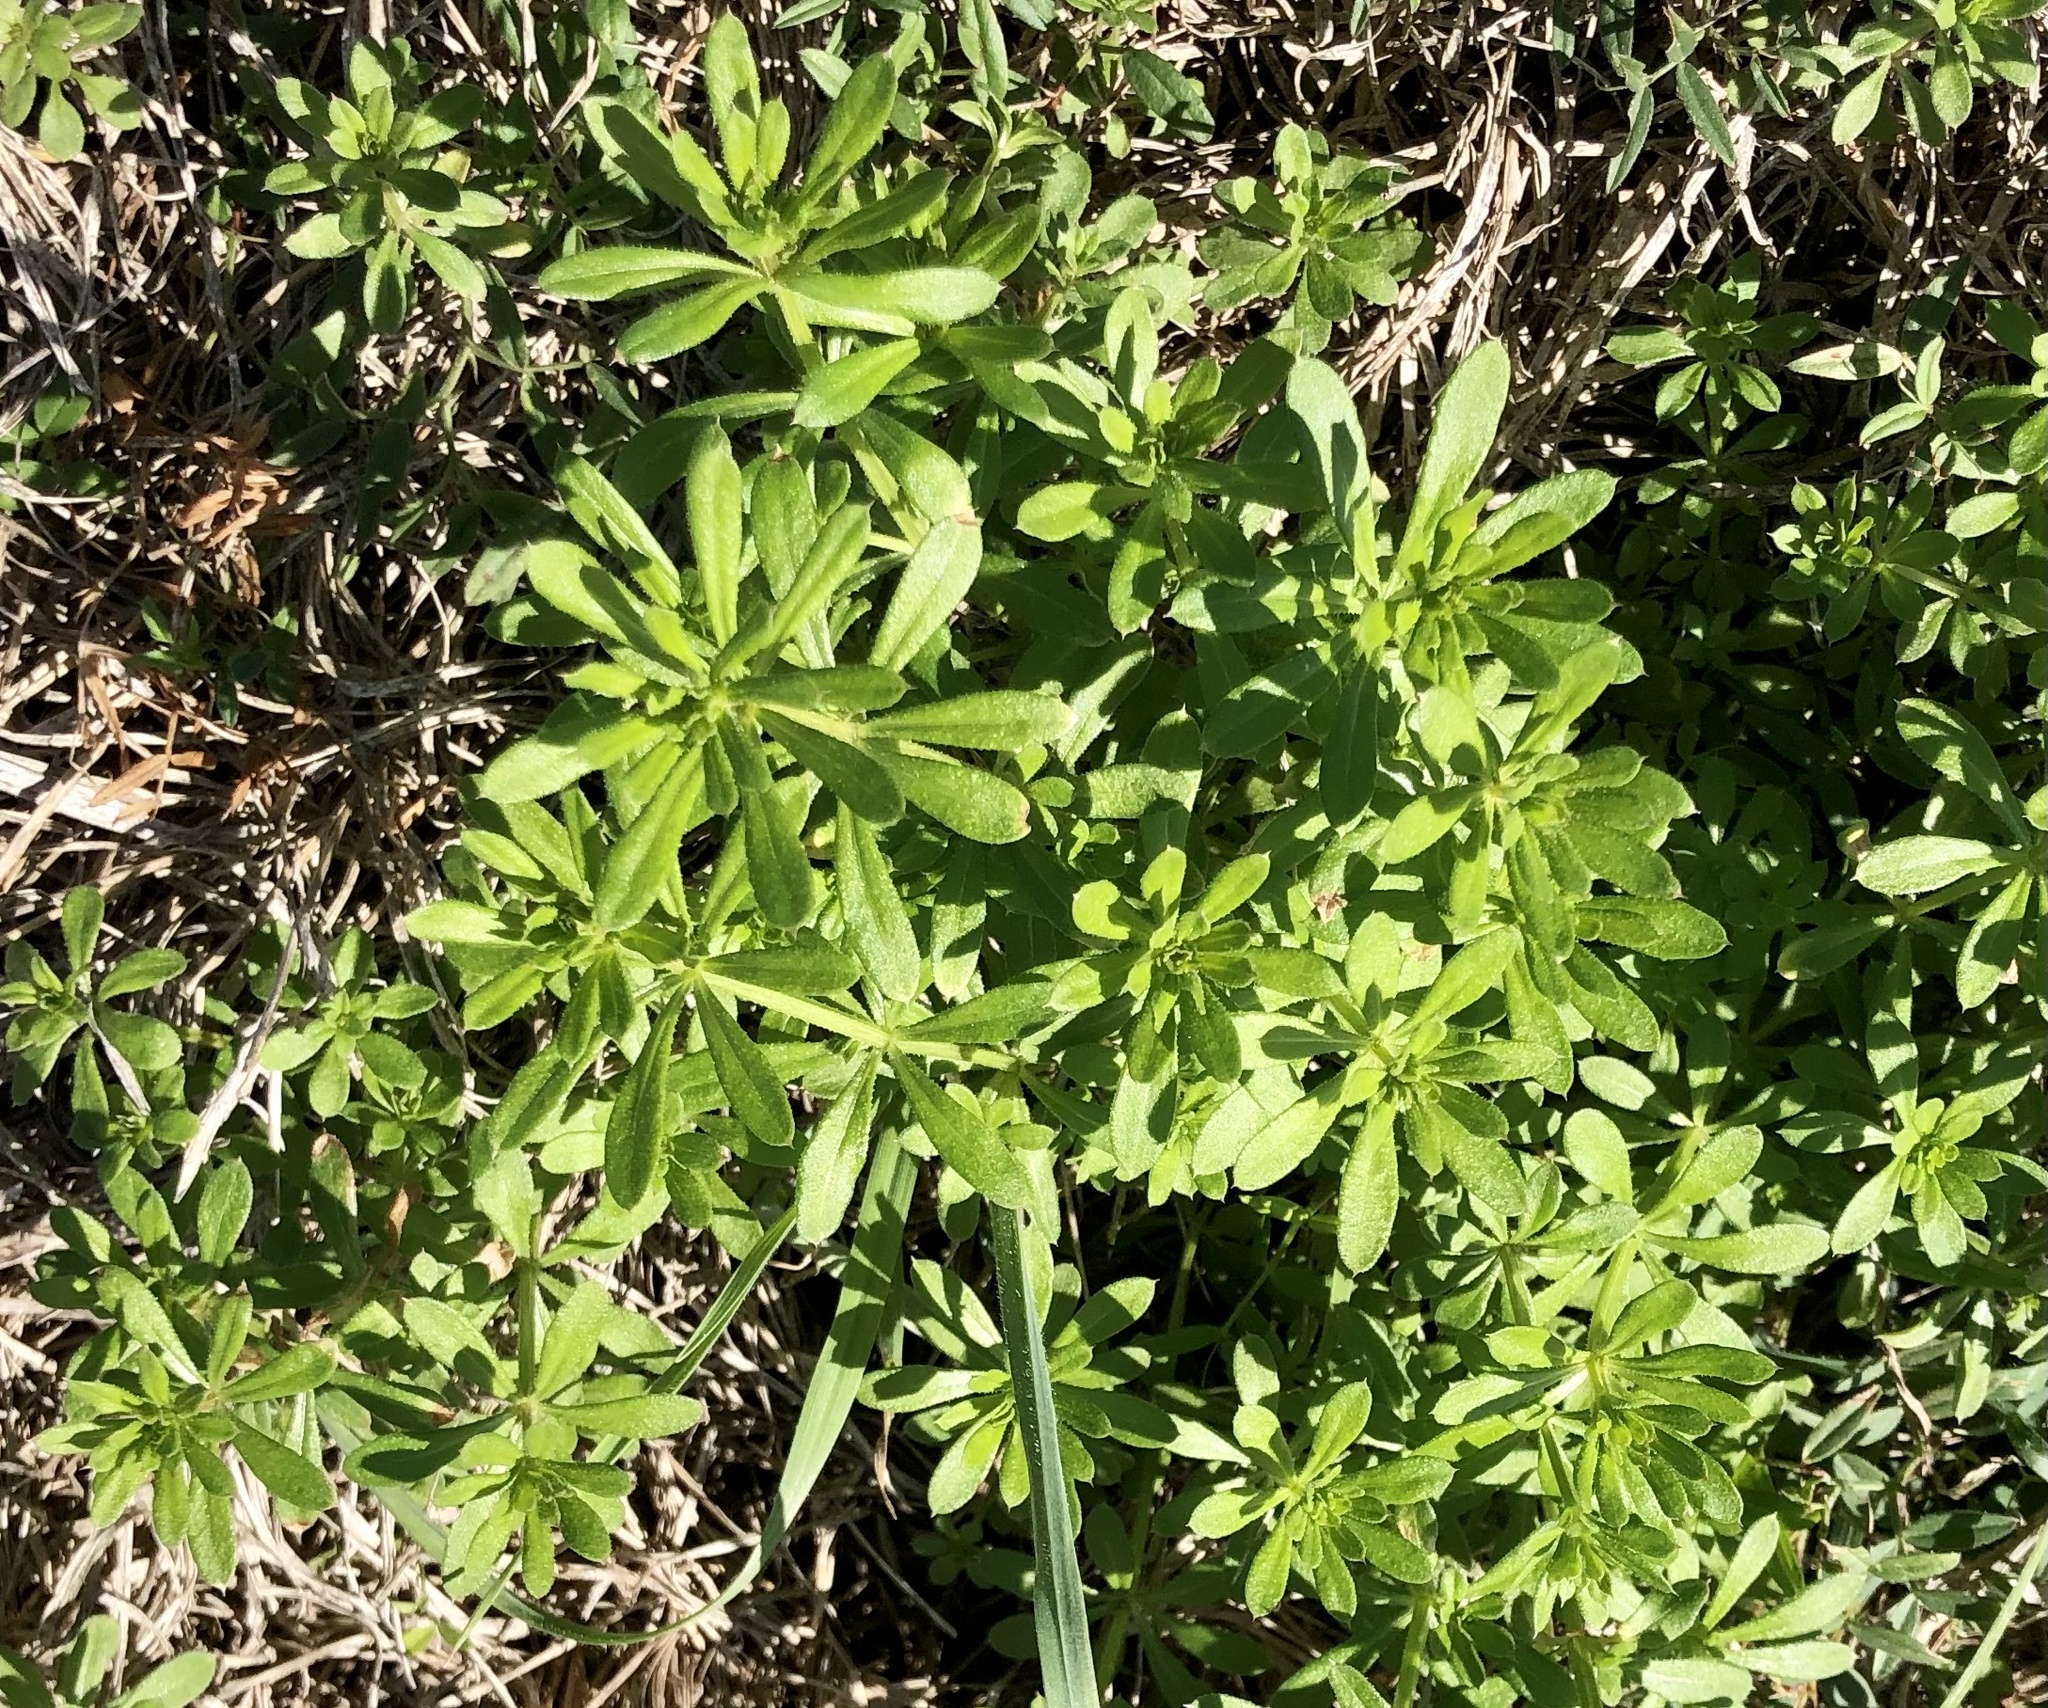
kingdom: Plantae
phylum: Tracheophyta
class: Magnoliopsida
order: Gentianales
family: Rubiaceae
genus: Galium
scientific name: Galium aparine
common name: Cleavers
